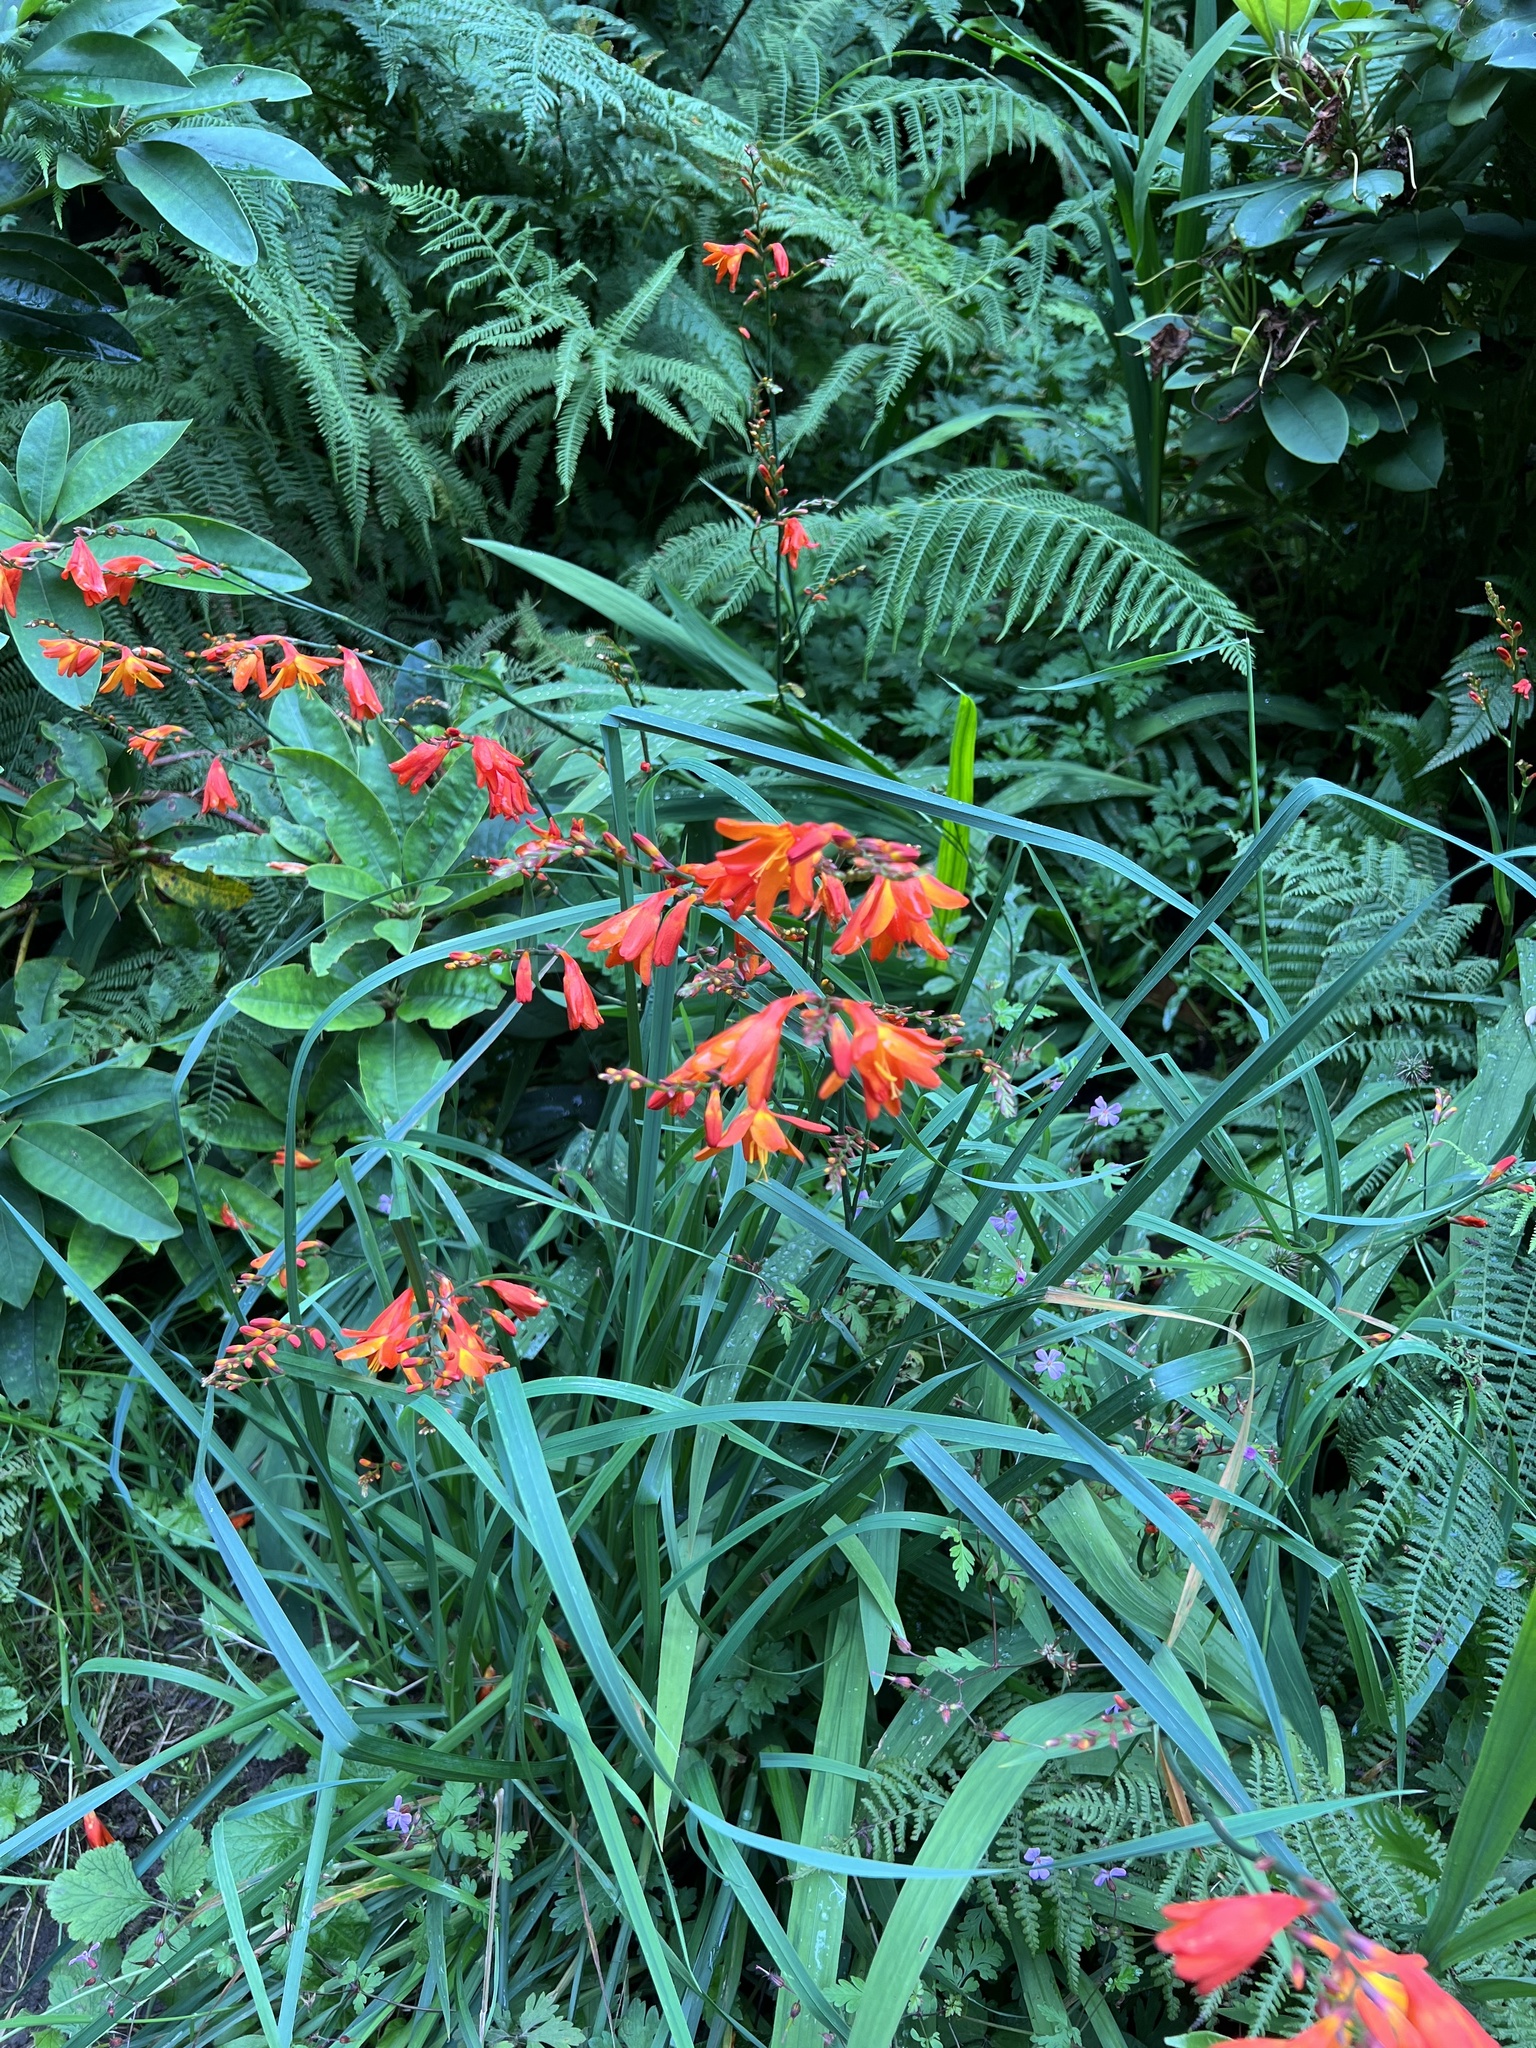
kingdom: Plantae
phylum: Tracheophyta
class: Liliopsida
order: Asparagales
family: Iridaceae
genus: Crocosmia
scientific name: Crocosmia crocosmiiflora
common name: Montbretia
